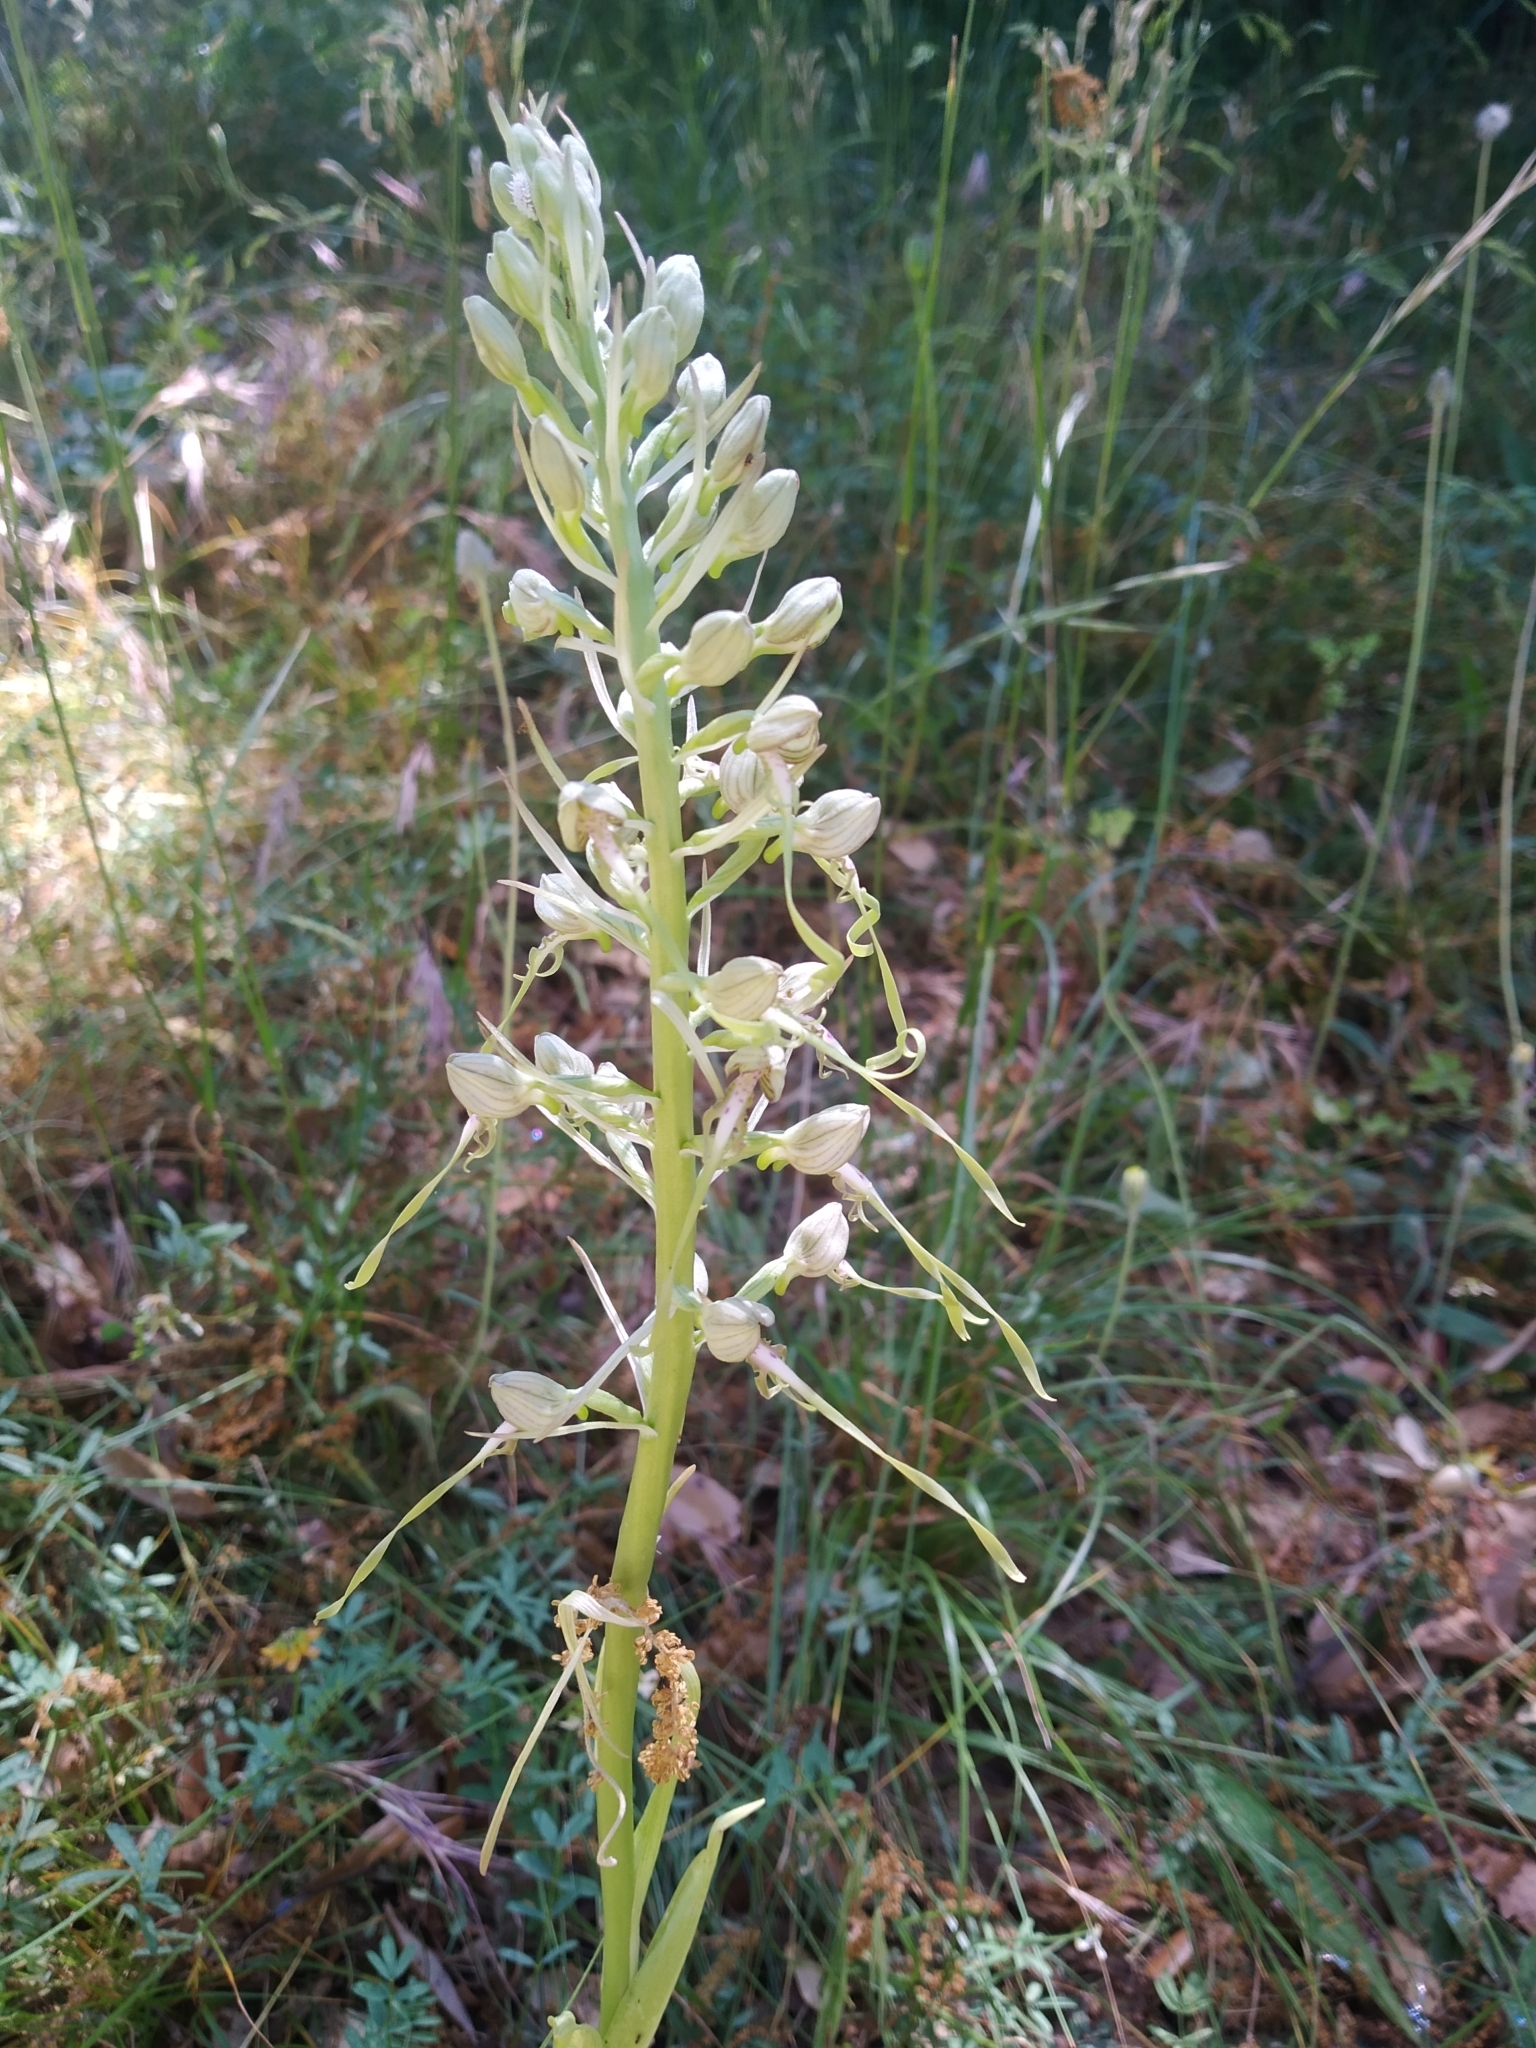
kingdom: Plantae
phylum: Tracheophyta
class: Liliopsida
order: Asparagales
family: Orchidaceae
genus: Himantoglossum
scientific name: Himantoglossum hircinum
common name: Lizard orchid
